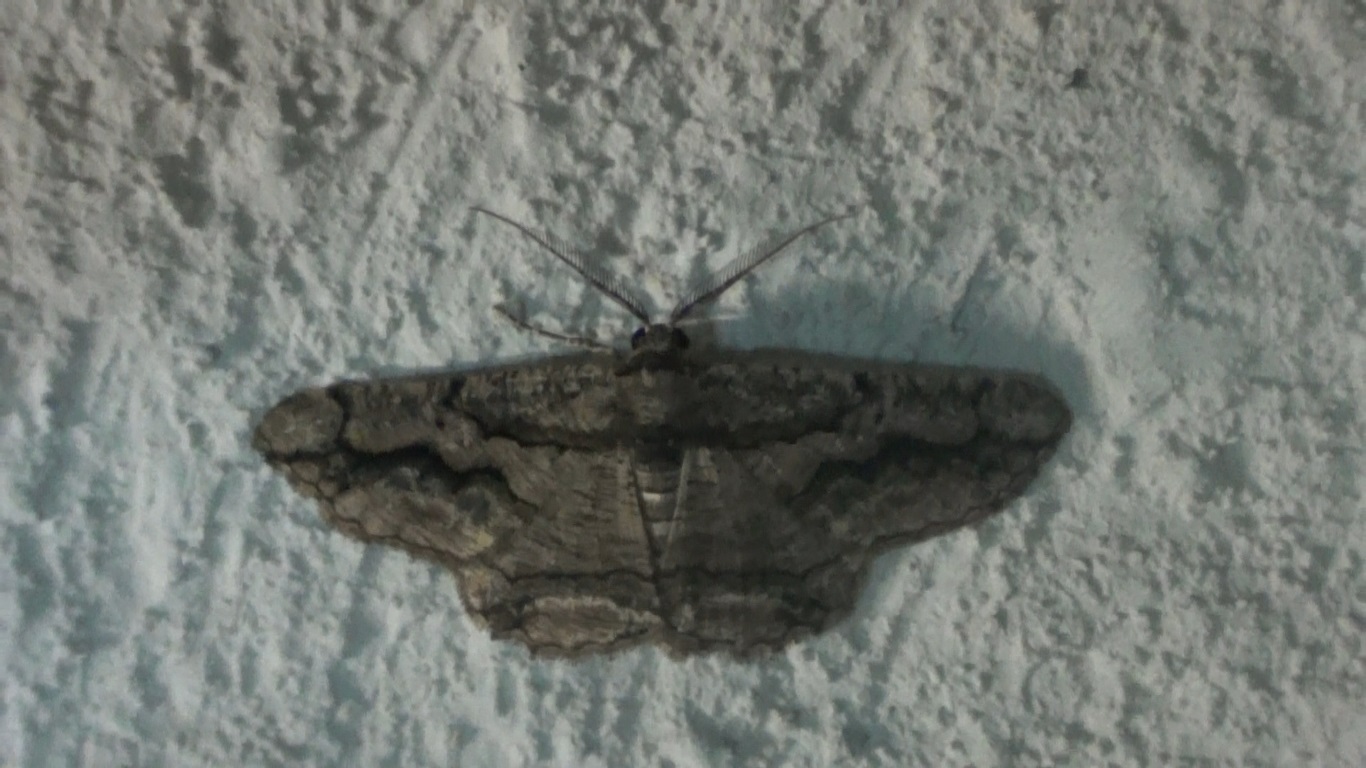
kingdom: Animalia
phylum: Arthropoda
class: Insecta
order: Lepidoptera
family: Geometridae
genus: Menophra
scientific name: Menophra japygiaria
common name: Brassy waved umber
